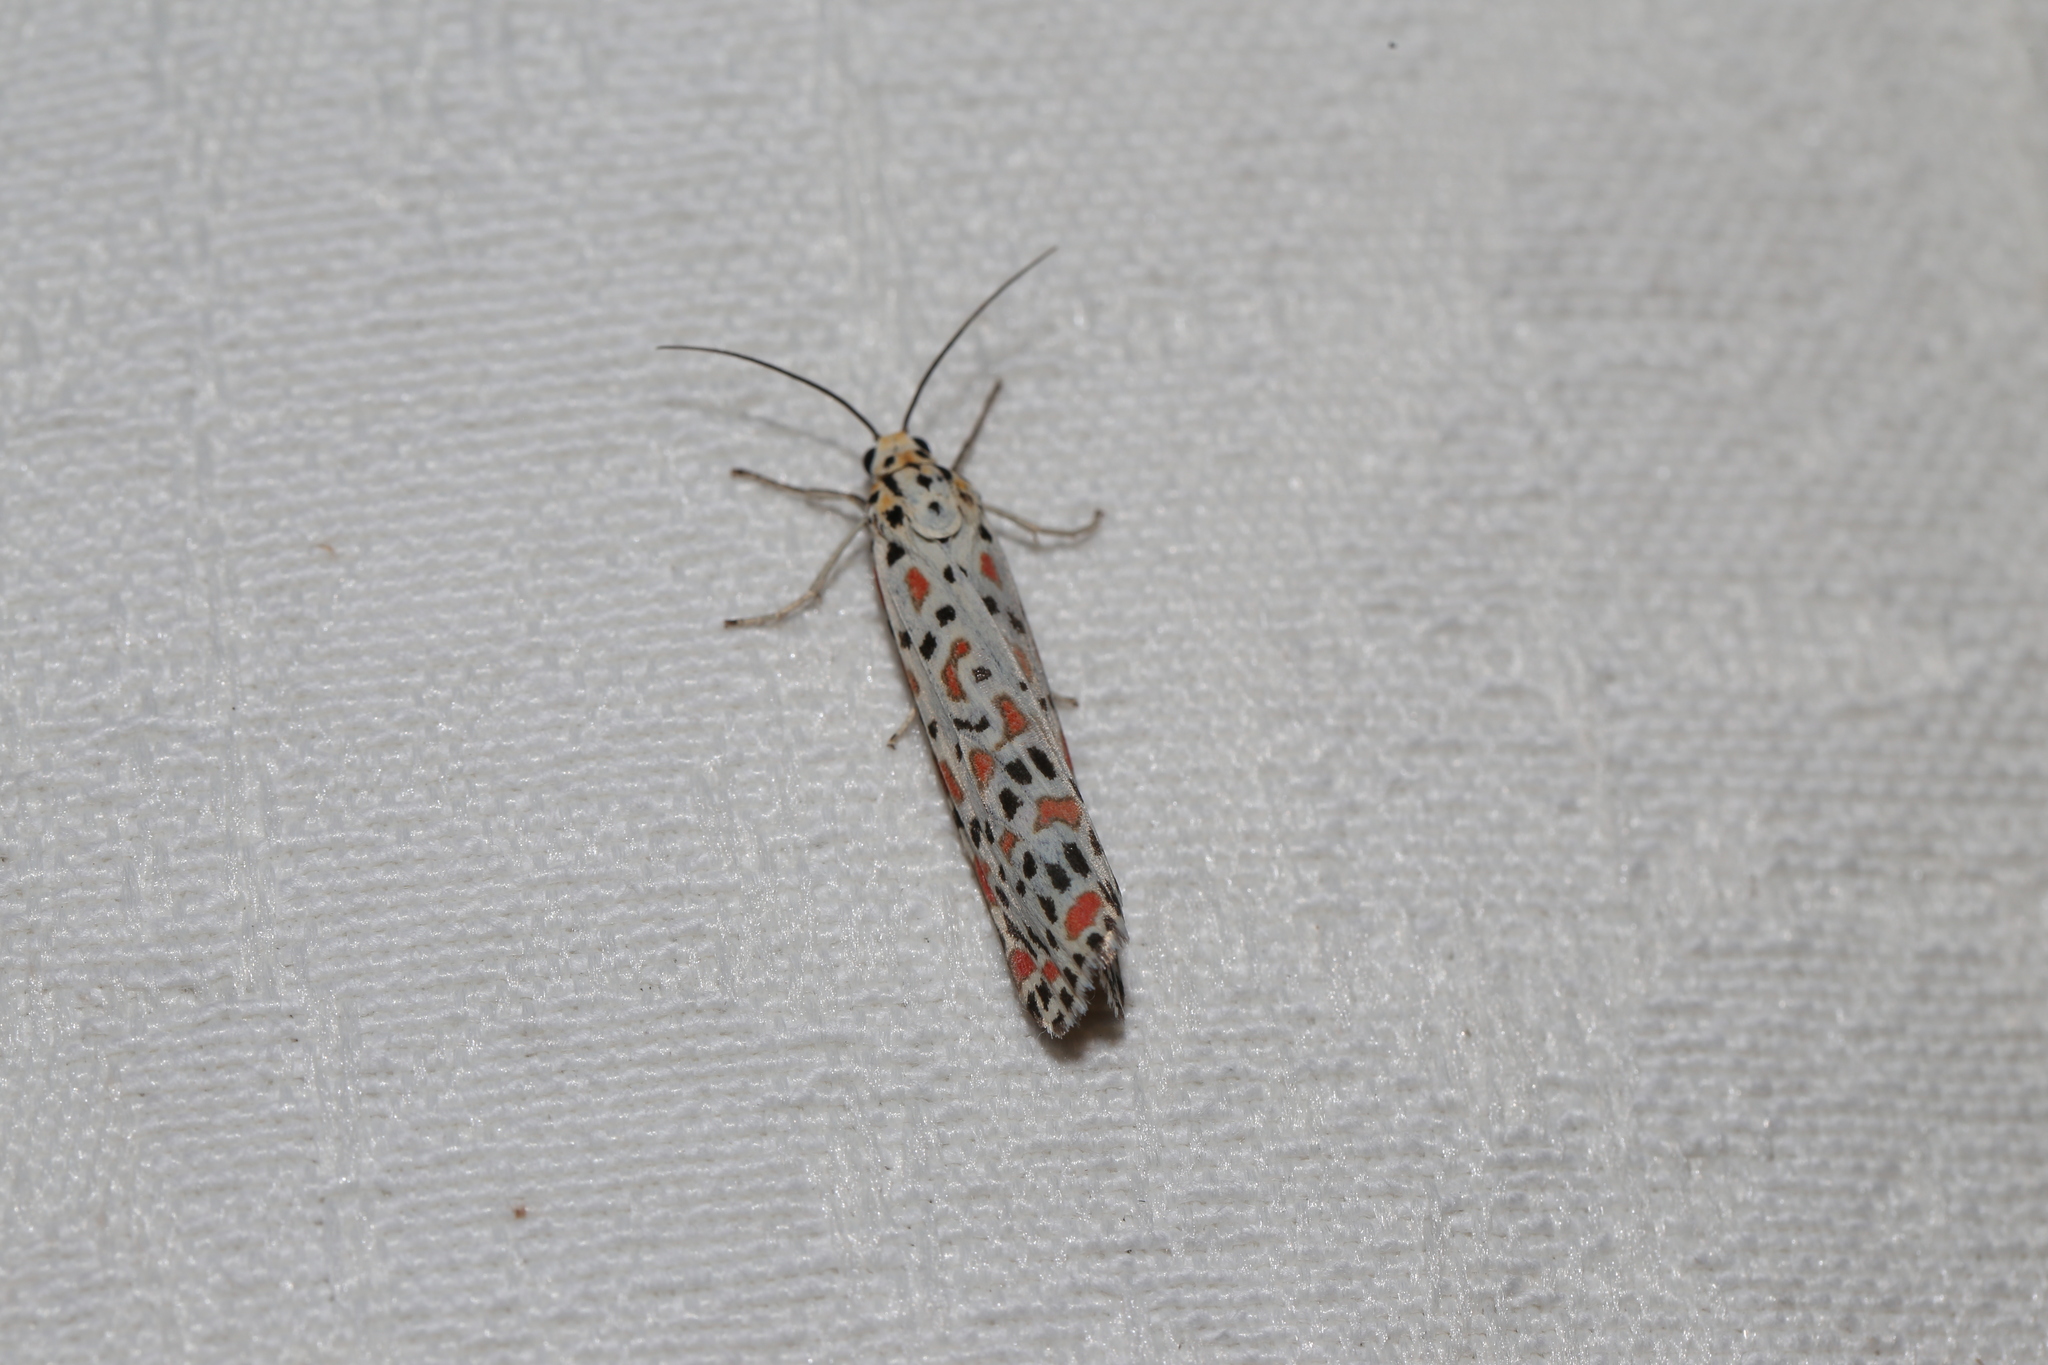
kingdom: Animalia
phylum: Arthropoda
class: Insecta
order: Lepidoptera
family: Erebidae
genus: Utetheisa
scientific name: Utetheisa lotrix
